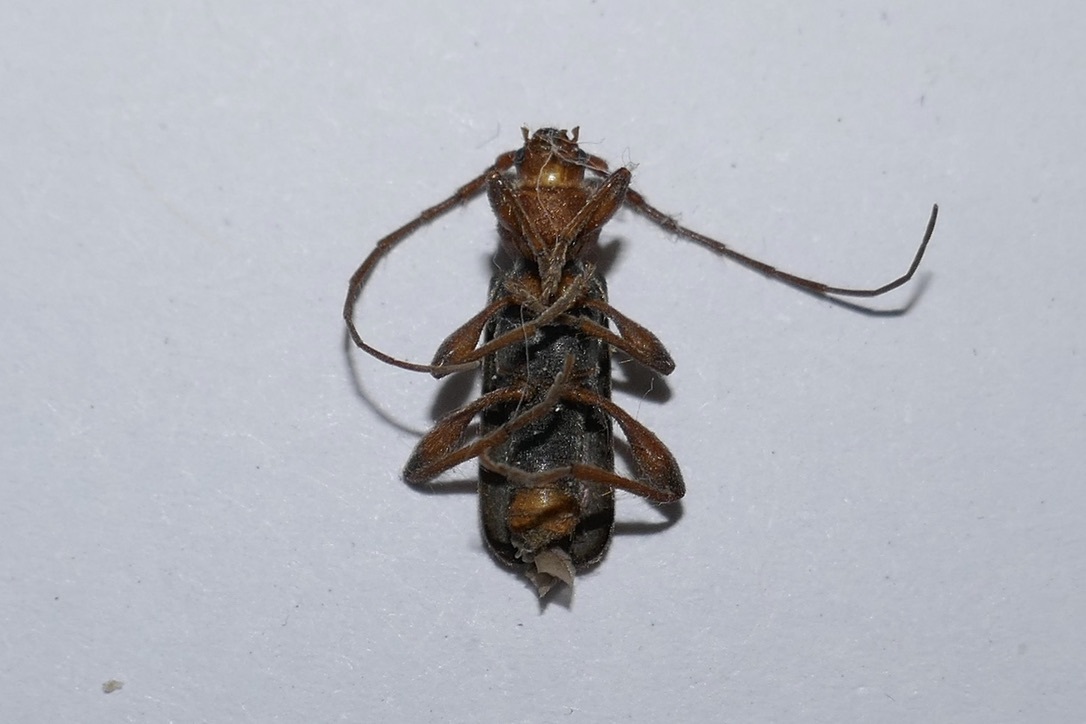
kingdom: Animalia
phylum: Arthropoda
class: Insecta
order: Coleoptera
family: Cerambycidae
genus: Phymatodes
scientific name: Phymatodes testaceus
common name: Long-horned beetle
